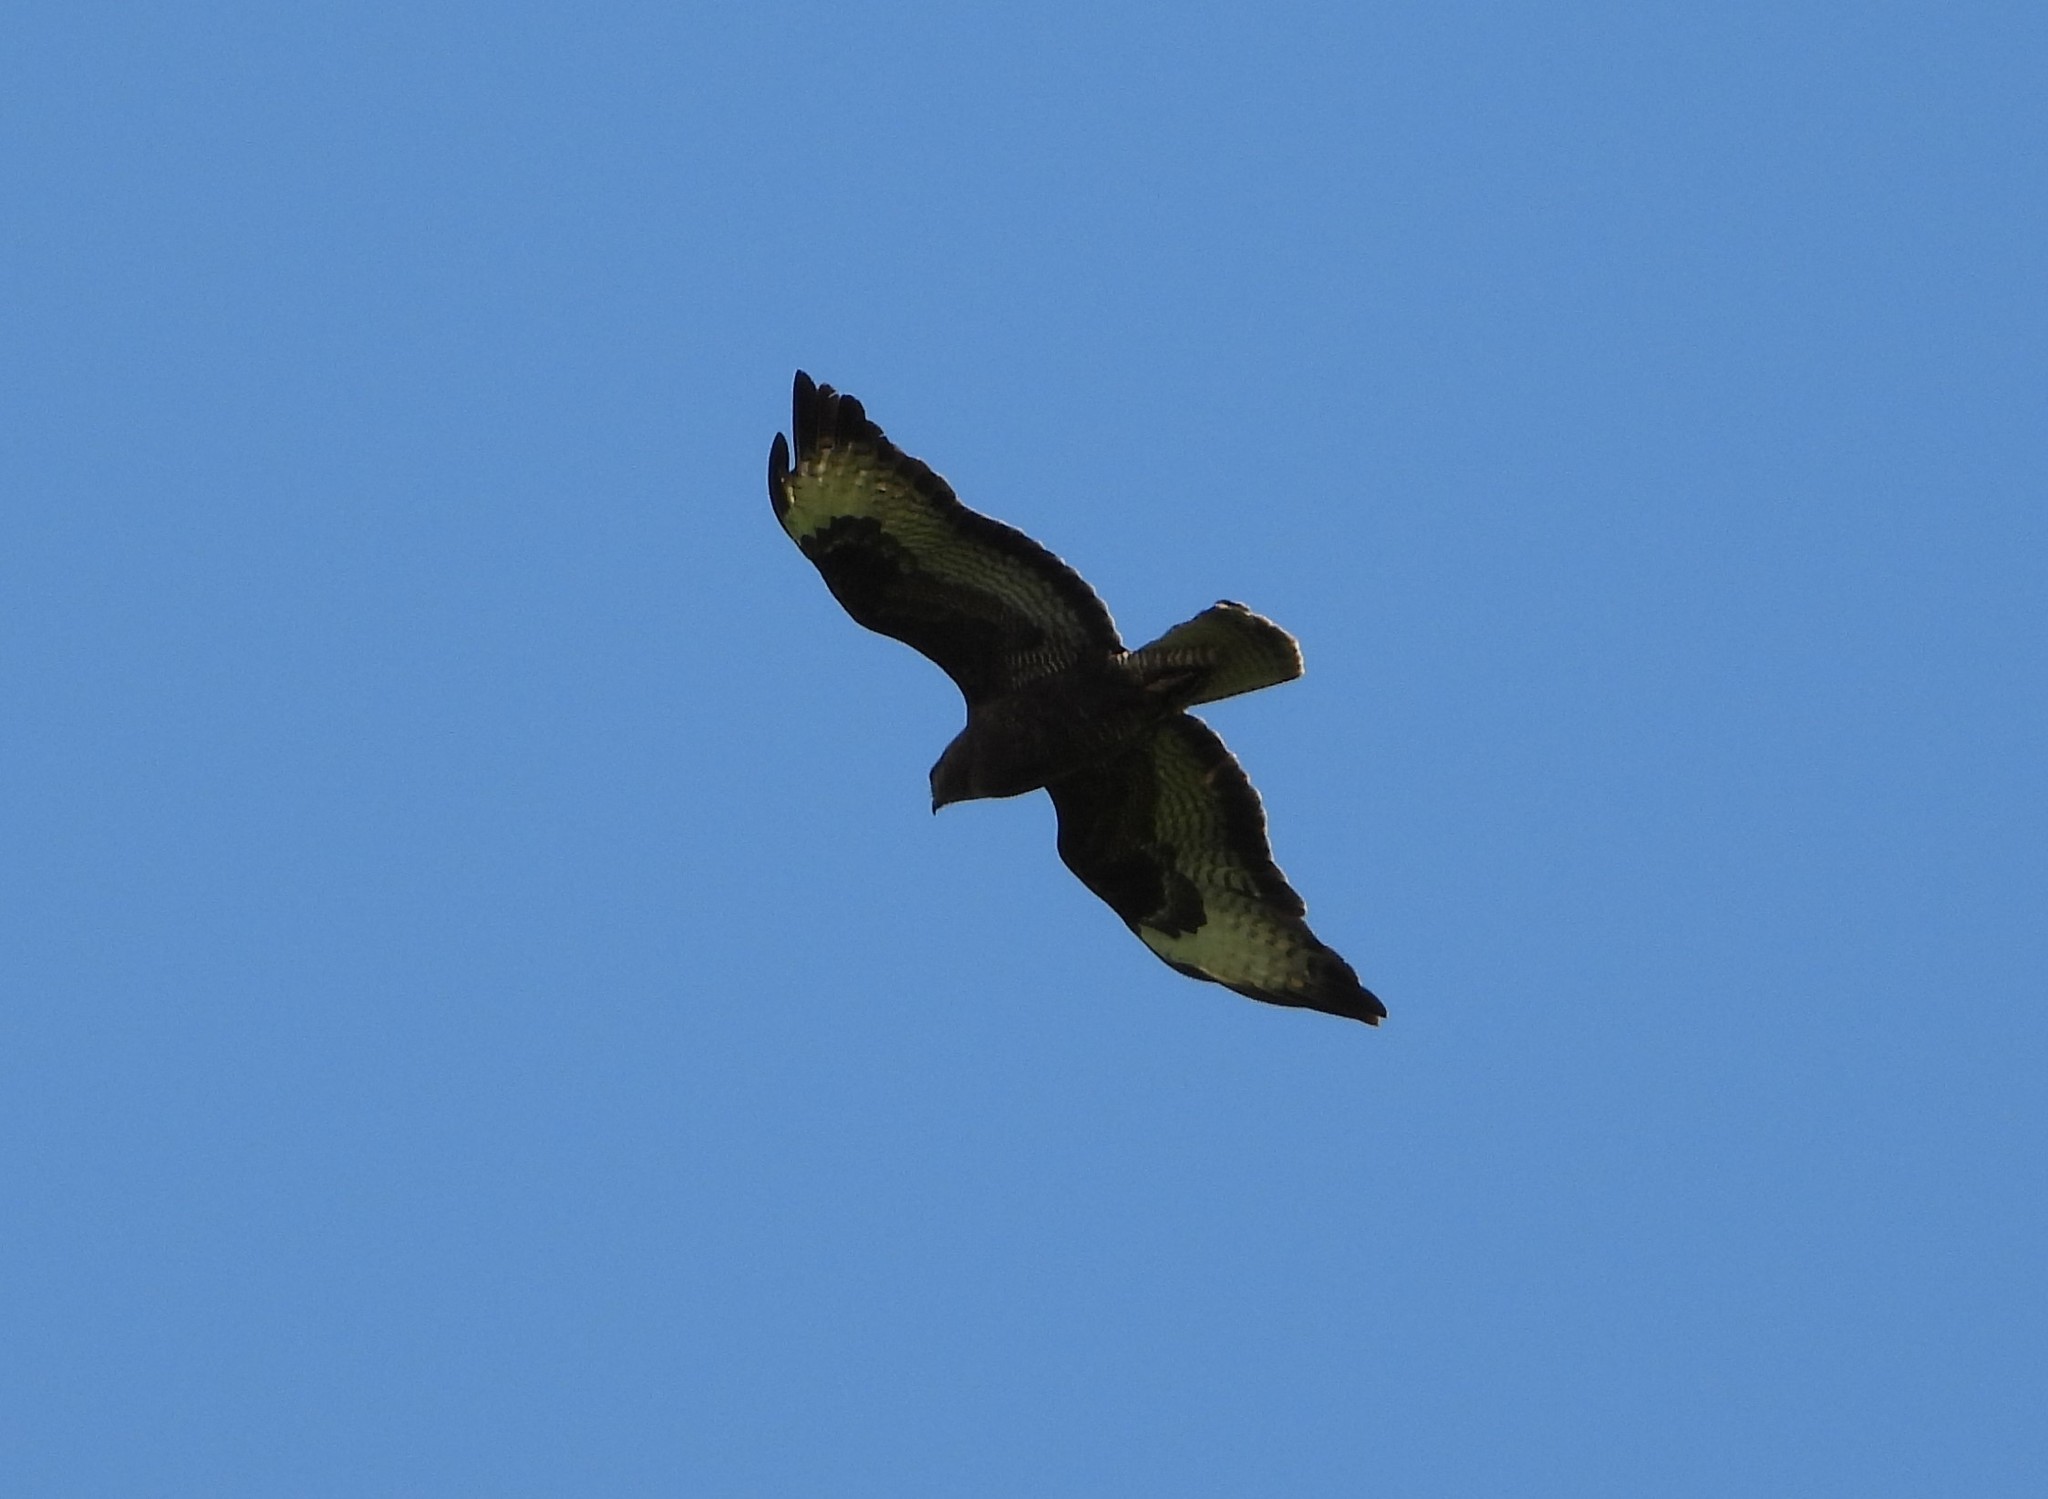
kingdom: Animalia
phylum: Chordata
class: Aves
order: Accipitriformes
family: Accipitridae
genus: Buteo
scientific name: Buteo buteo
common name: Common buzzard
